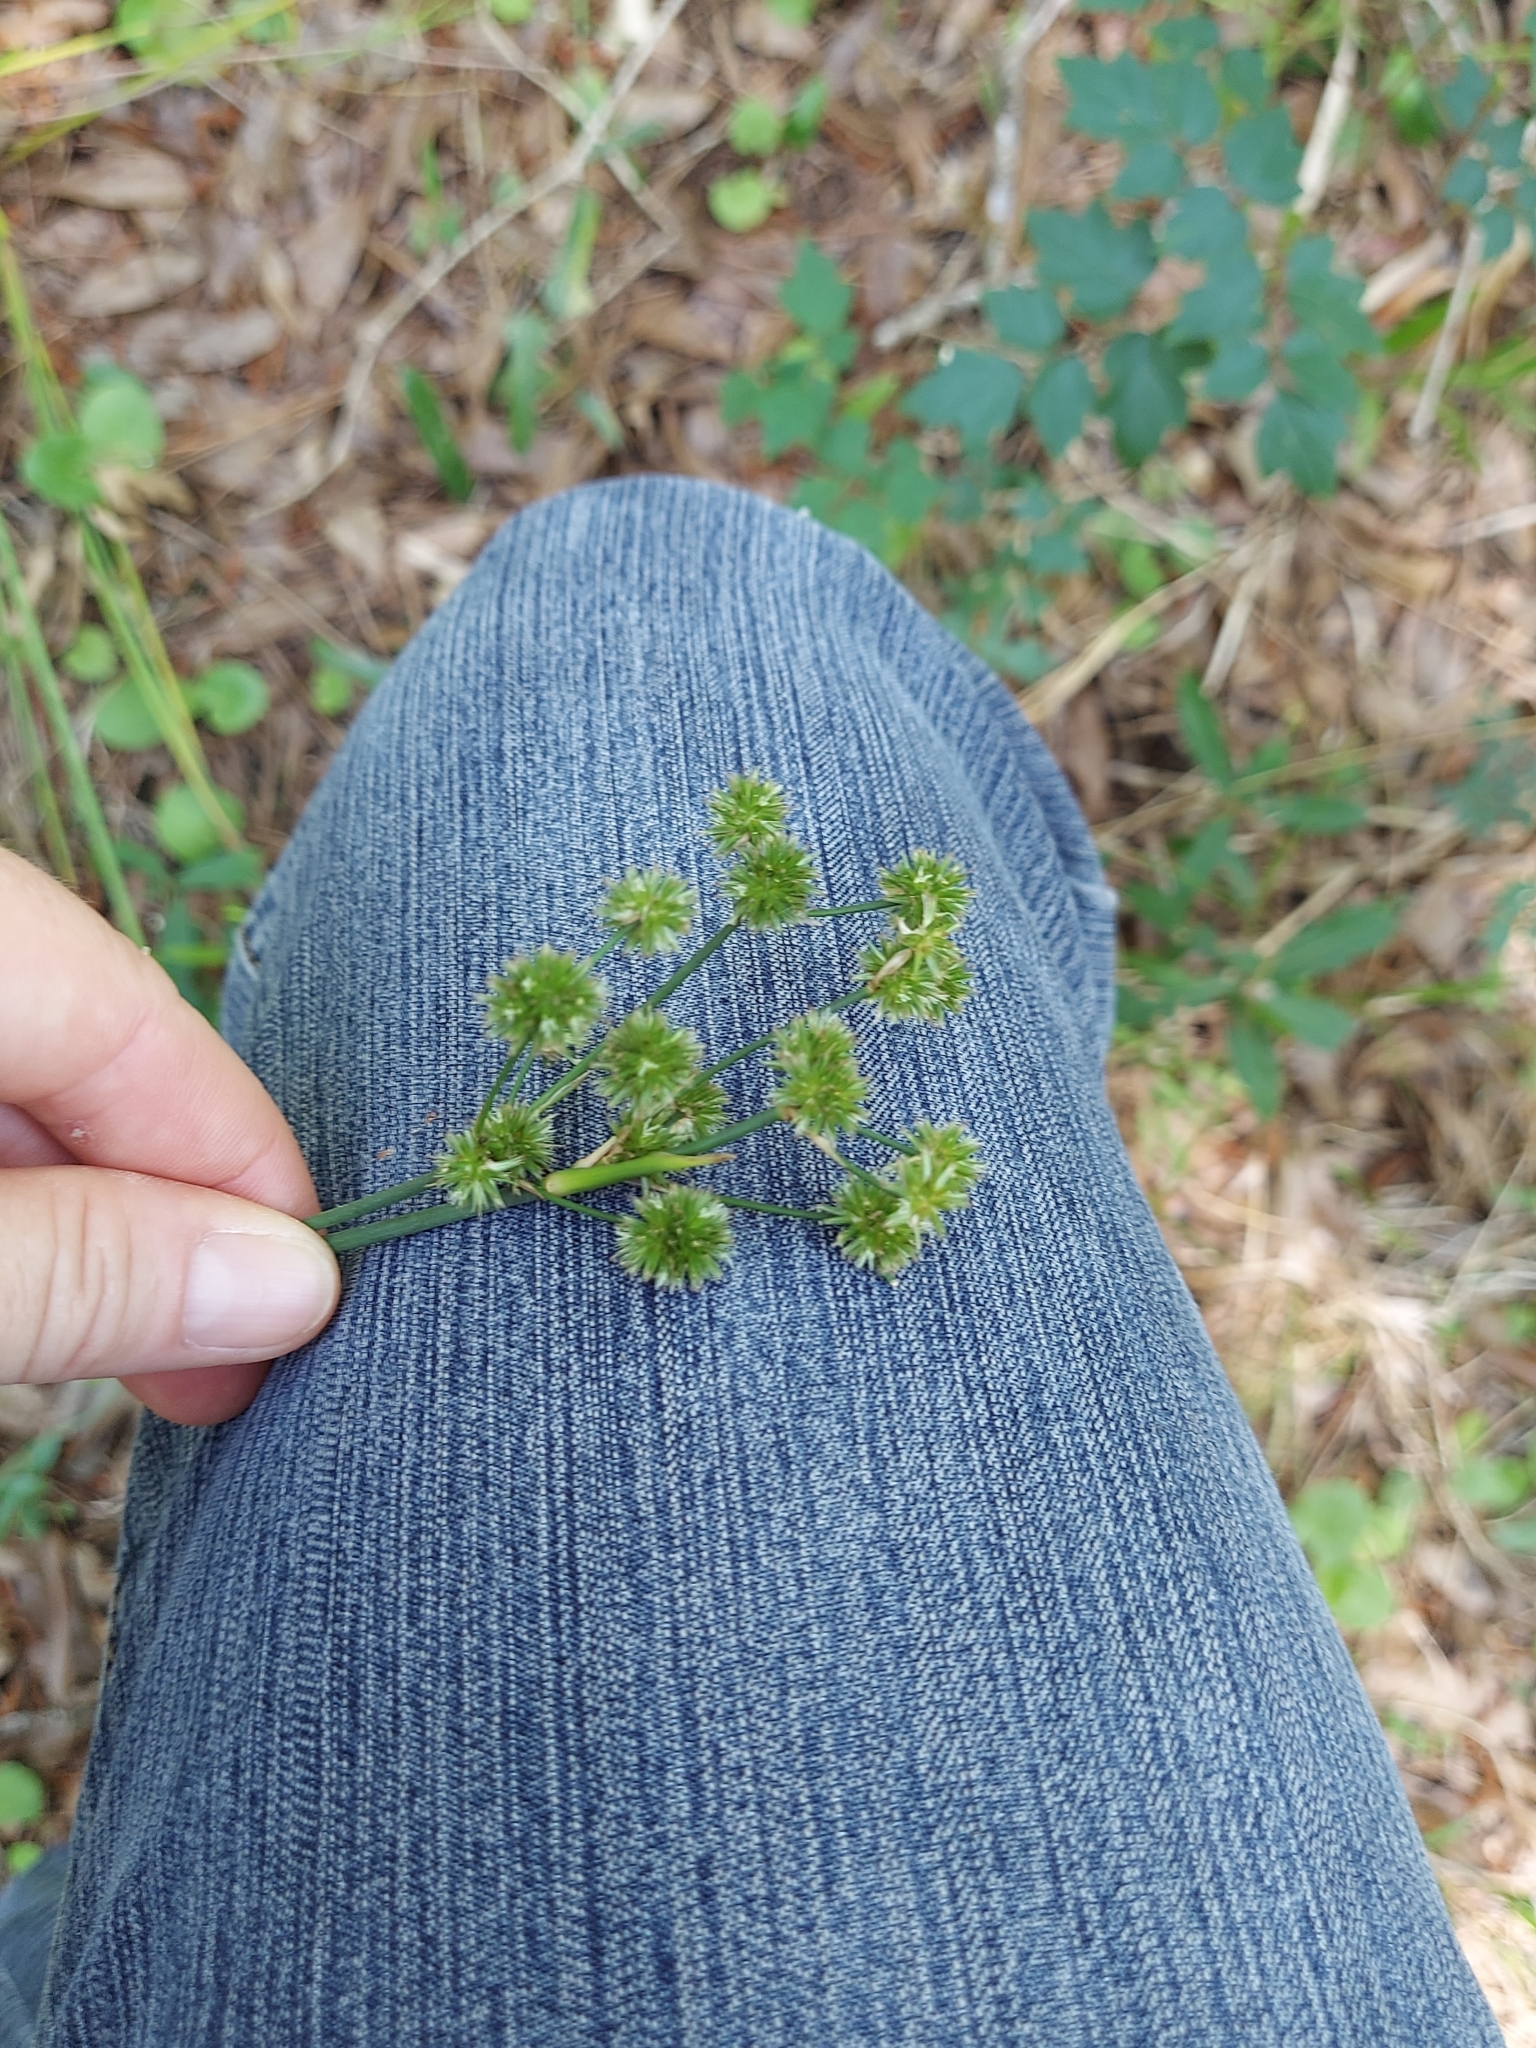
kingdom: Plantae
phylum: Tracheophyta
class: Liliopsida
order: Poales
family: Juncaceae
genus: Juncus
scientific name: Juncus
